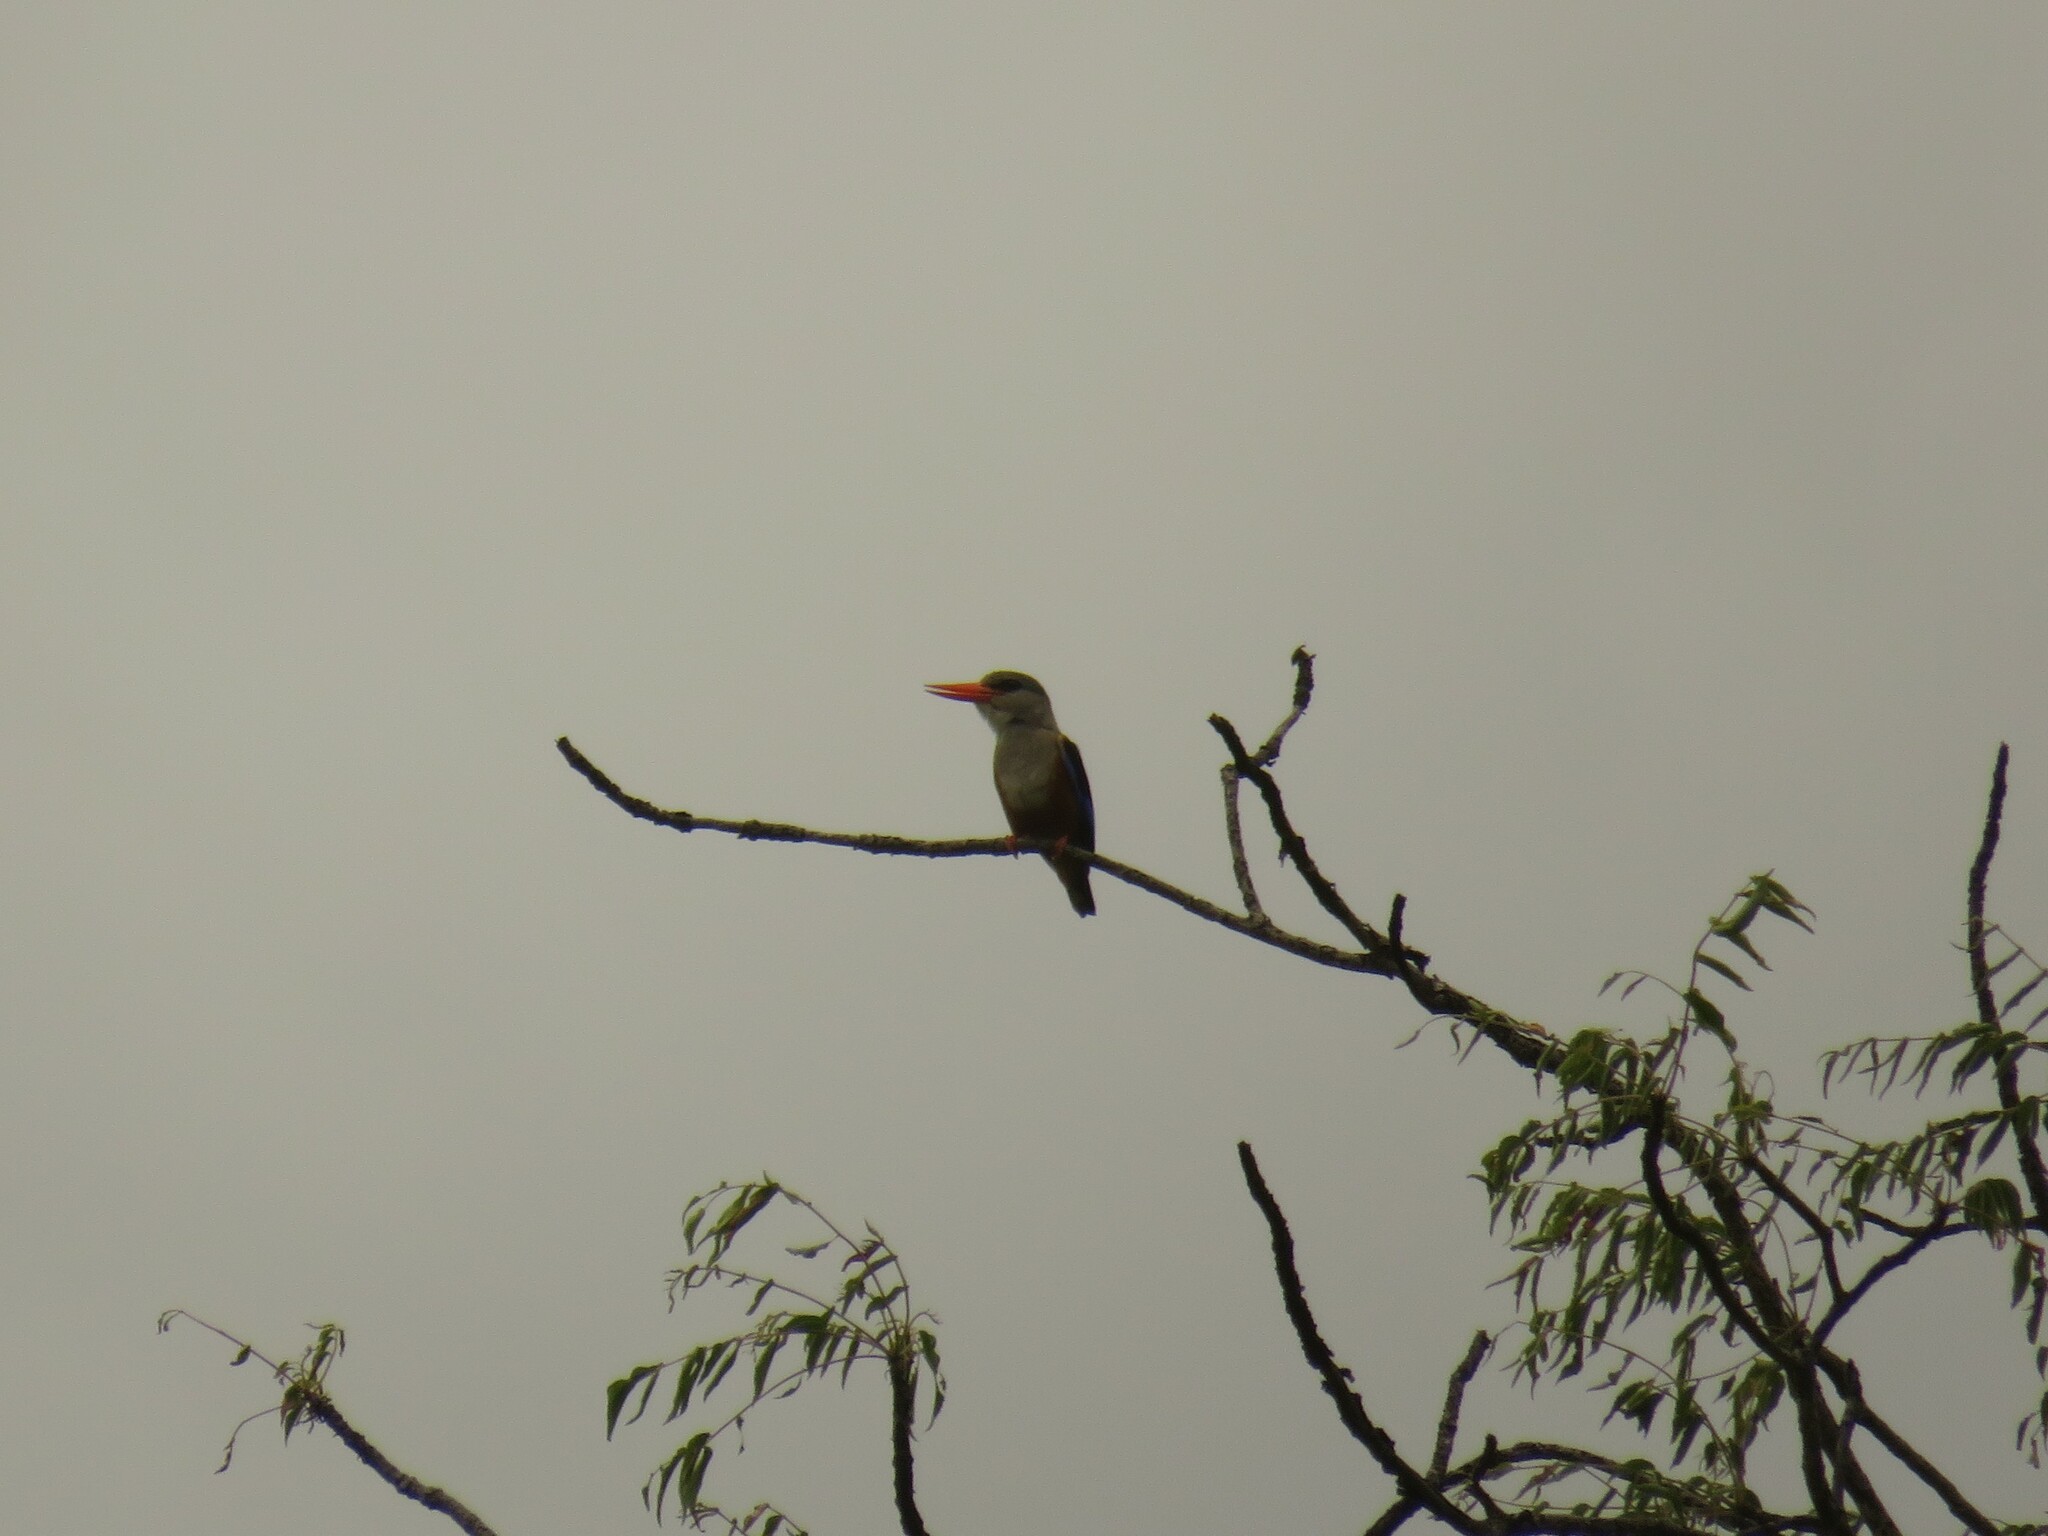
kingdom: Animalia
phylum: Chordata
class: Aves
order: Coraciiformes
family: Alcedinidae
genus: Halcyon
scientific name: Halcyon leucocephala
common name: Grey-headed kingfisher
